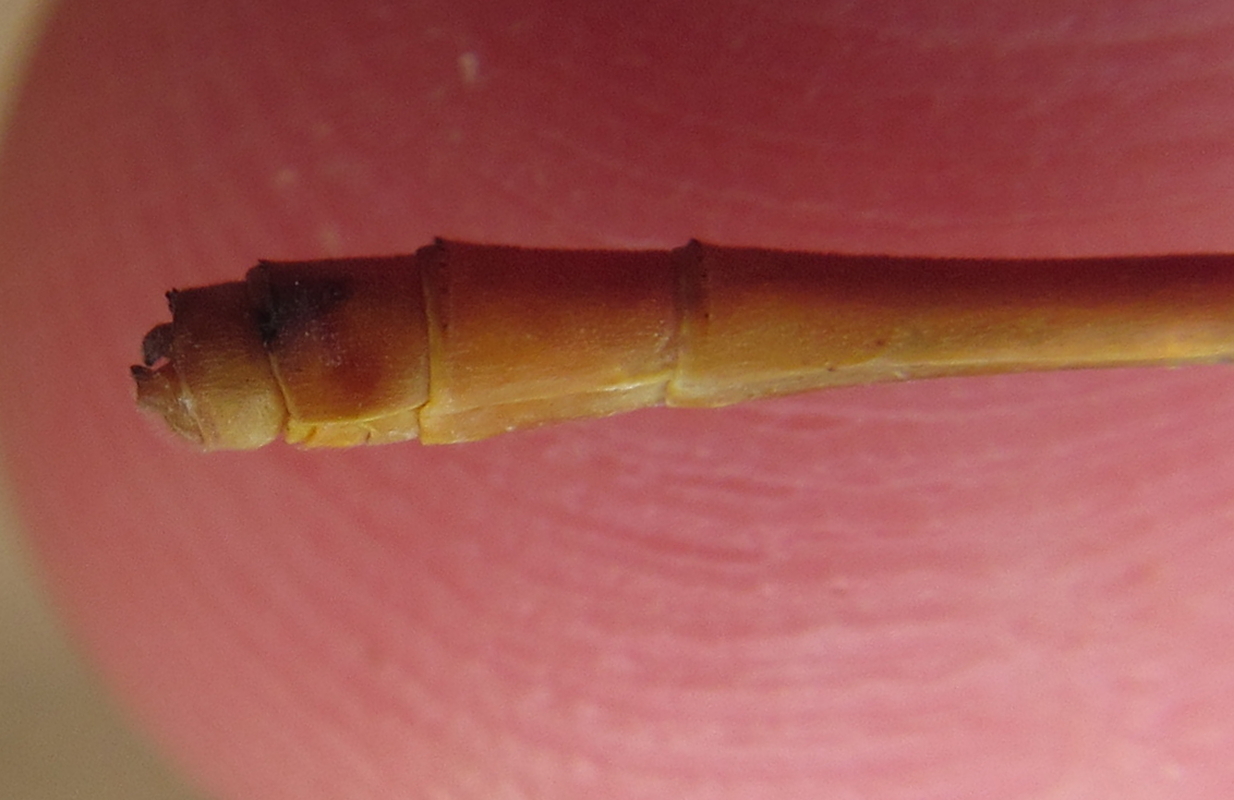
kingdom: Animalia
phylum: Arthropoda
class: Insecta
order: Odonata
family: Coenagrionidae
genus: Ceriagrion
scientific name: Ceriagrion glabrum
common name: Common pond damsel
